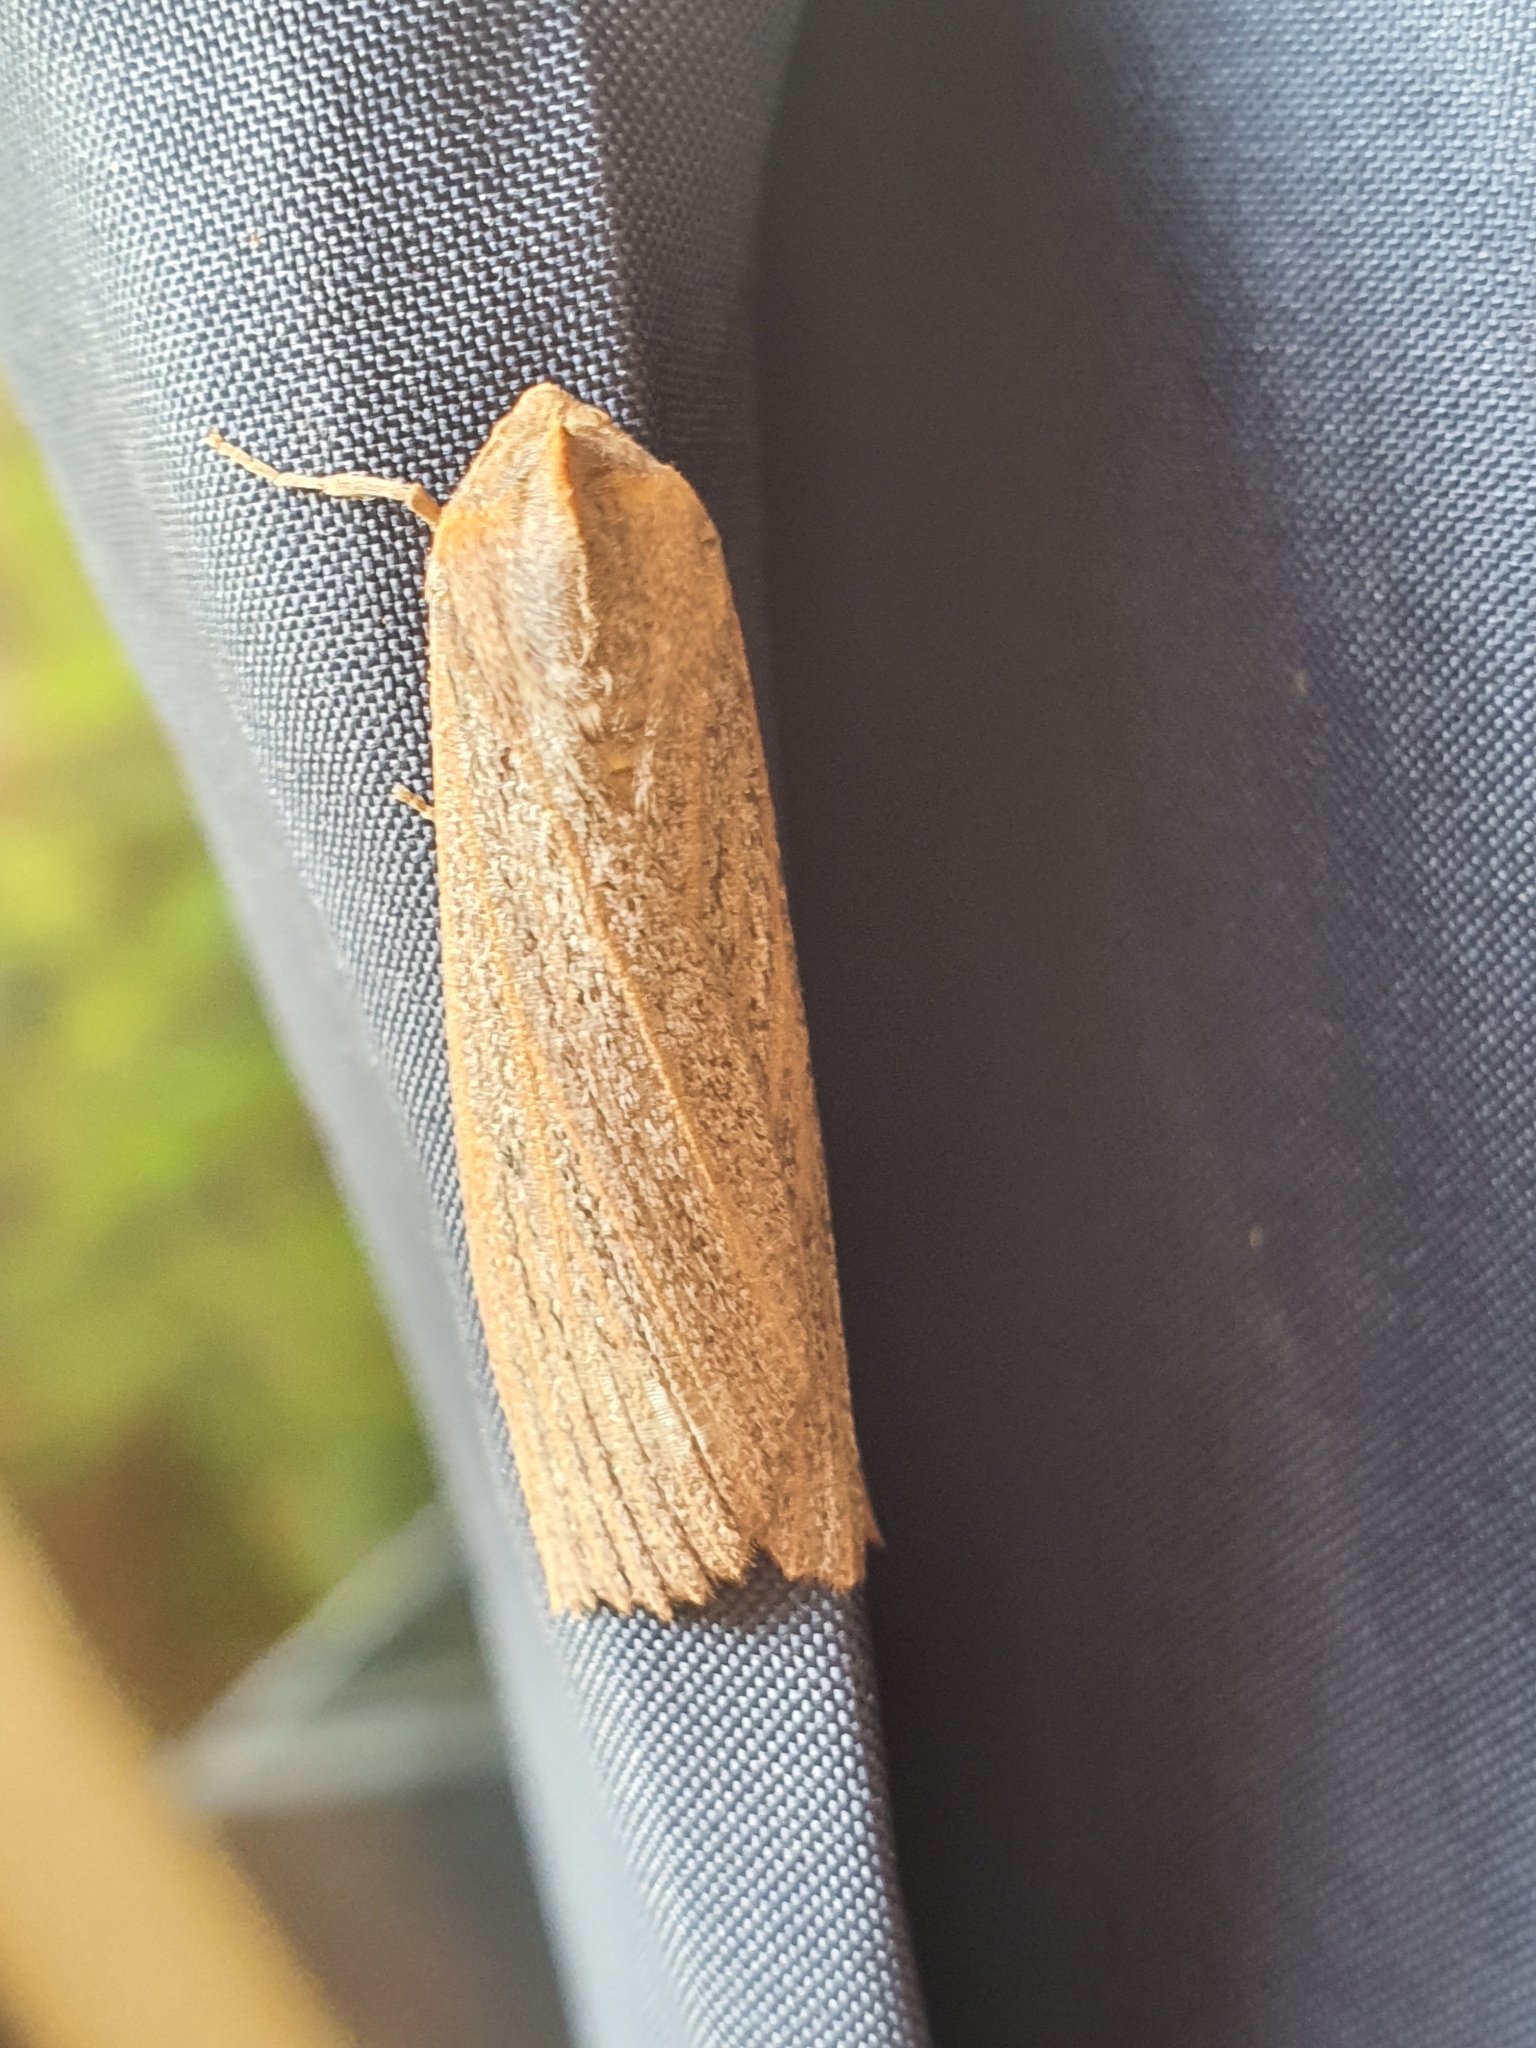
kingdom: Animalia
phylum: Arthropoda
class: Insecta
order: Lepidoptera
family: Geometridae
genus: Paralaea
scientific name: Paralaea porphyrinaria
